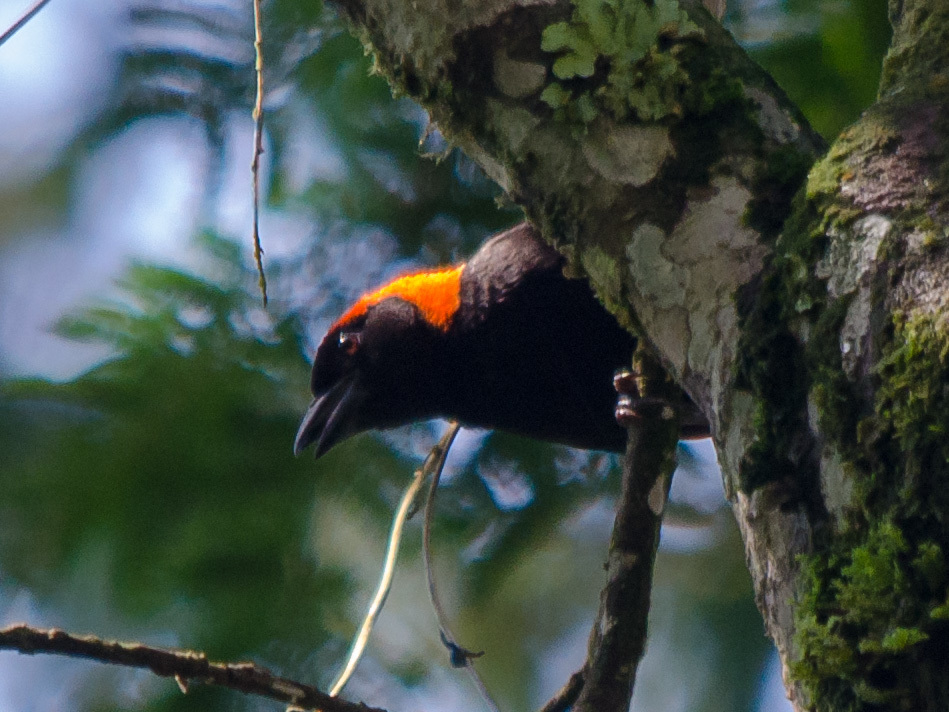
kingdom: Animalia
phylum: Chordata
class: Aves
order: Passeriformes
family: Ploceidae
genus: Malimbus
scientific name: Malimbus rubricollis
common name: Red-headed malimbe
